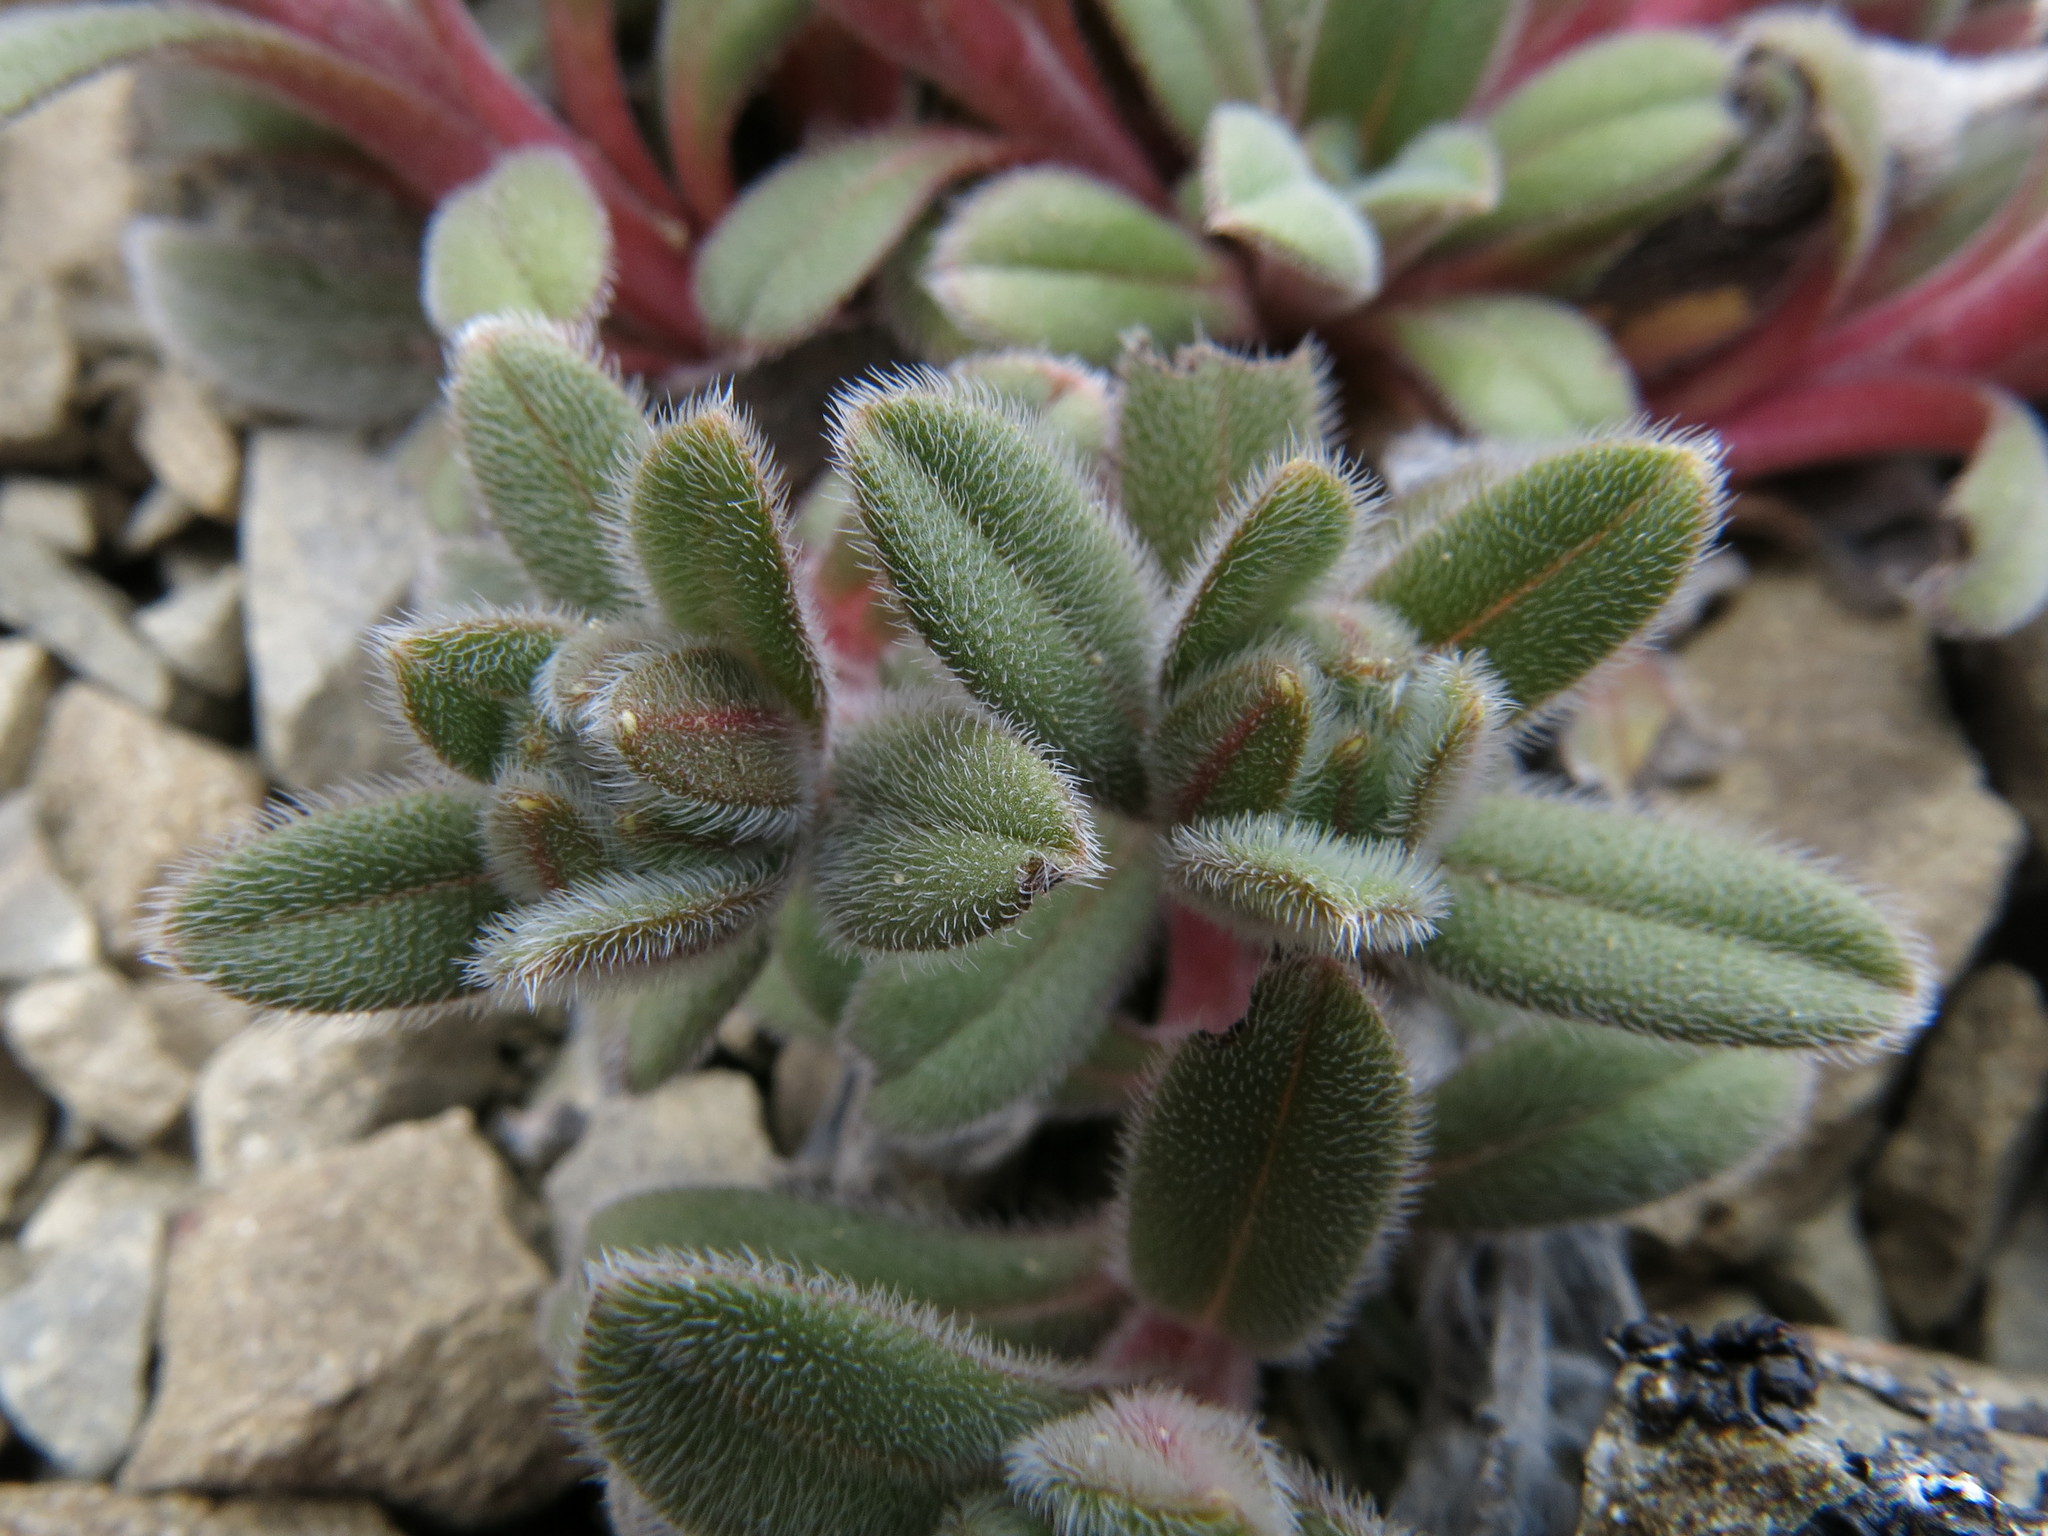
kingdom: Plantae
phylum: Tracheophyta
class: Magnoliopsida
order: Boraginales
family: Boraginaceae
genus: Myosotis
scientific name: Myosotis traversii
